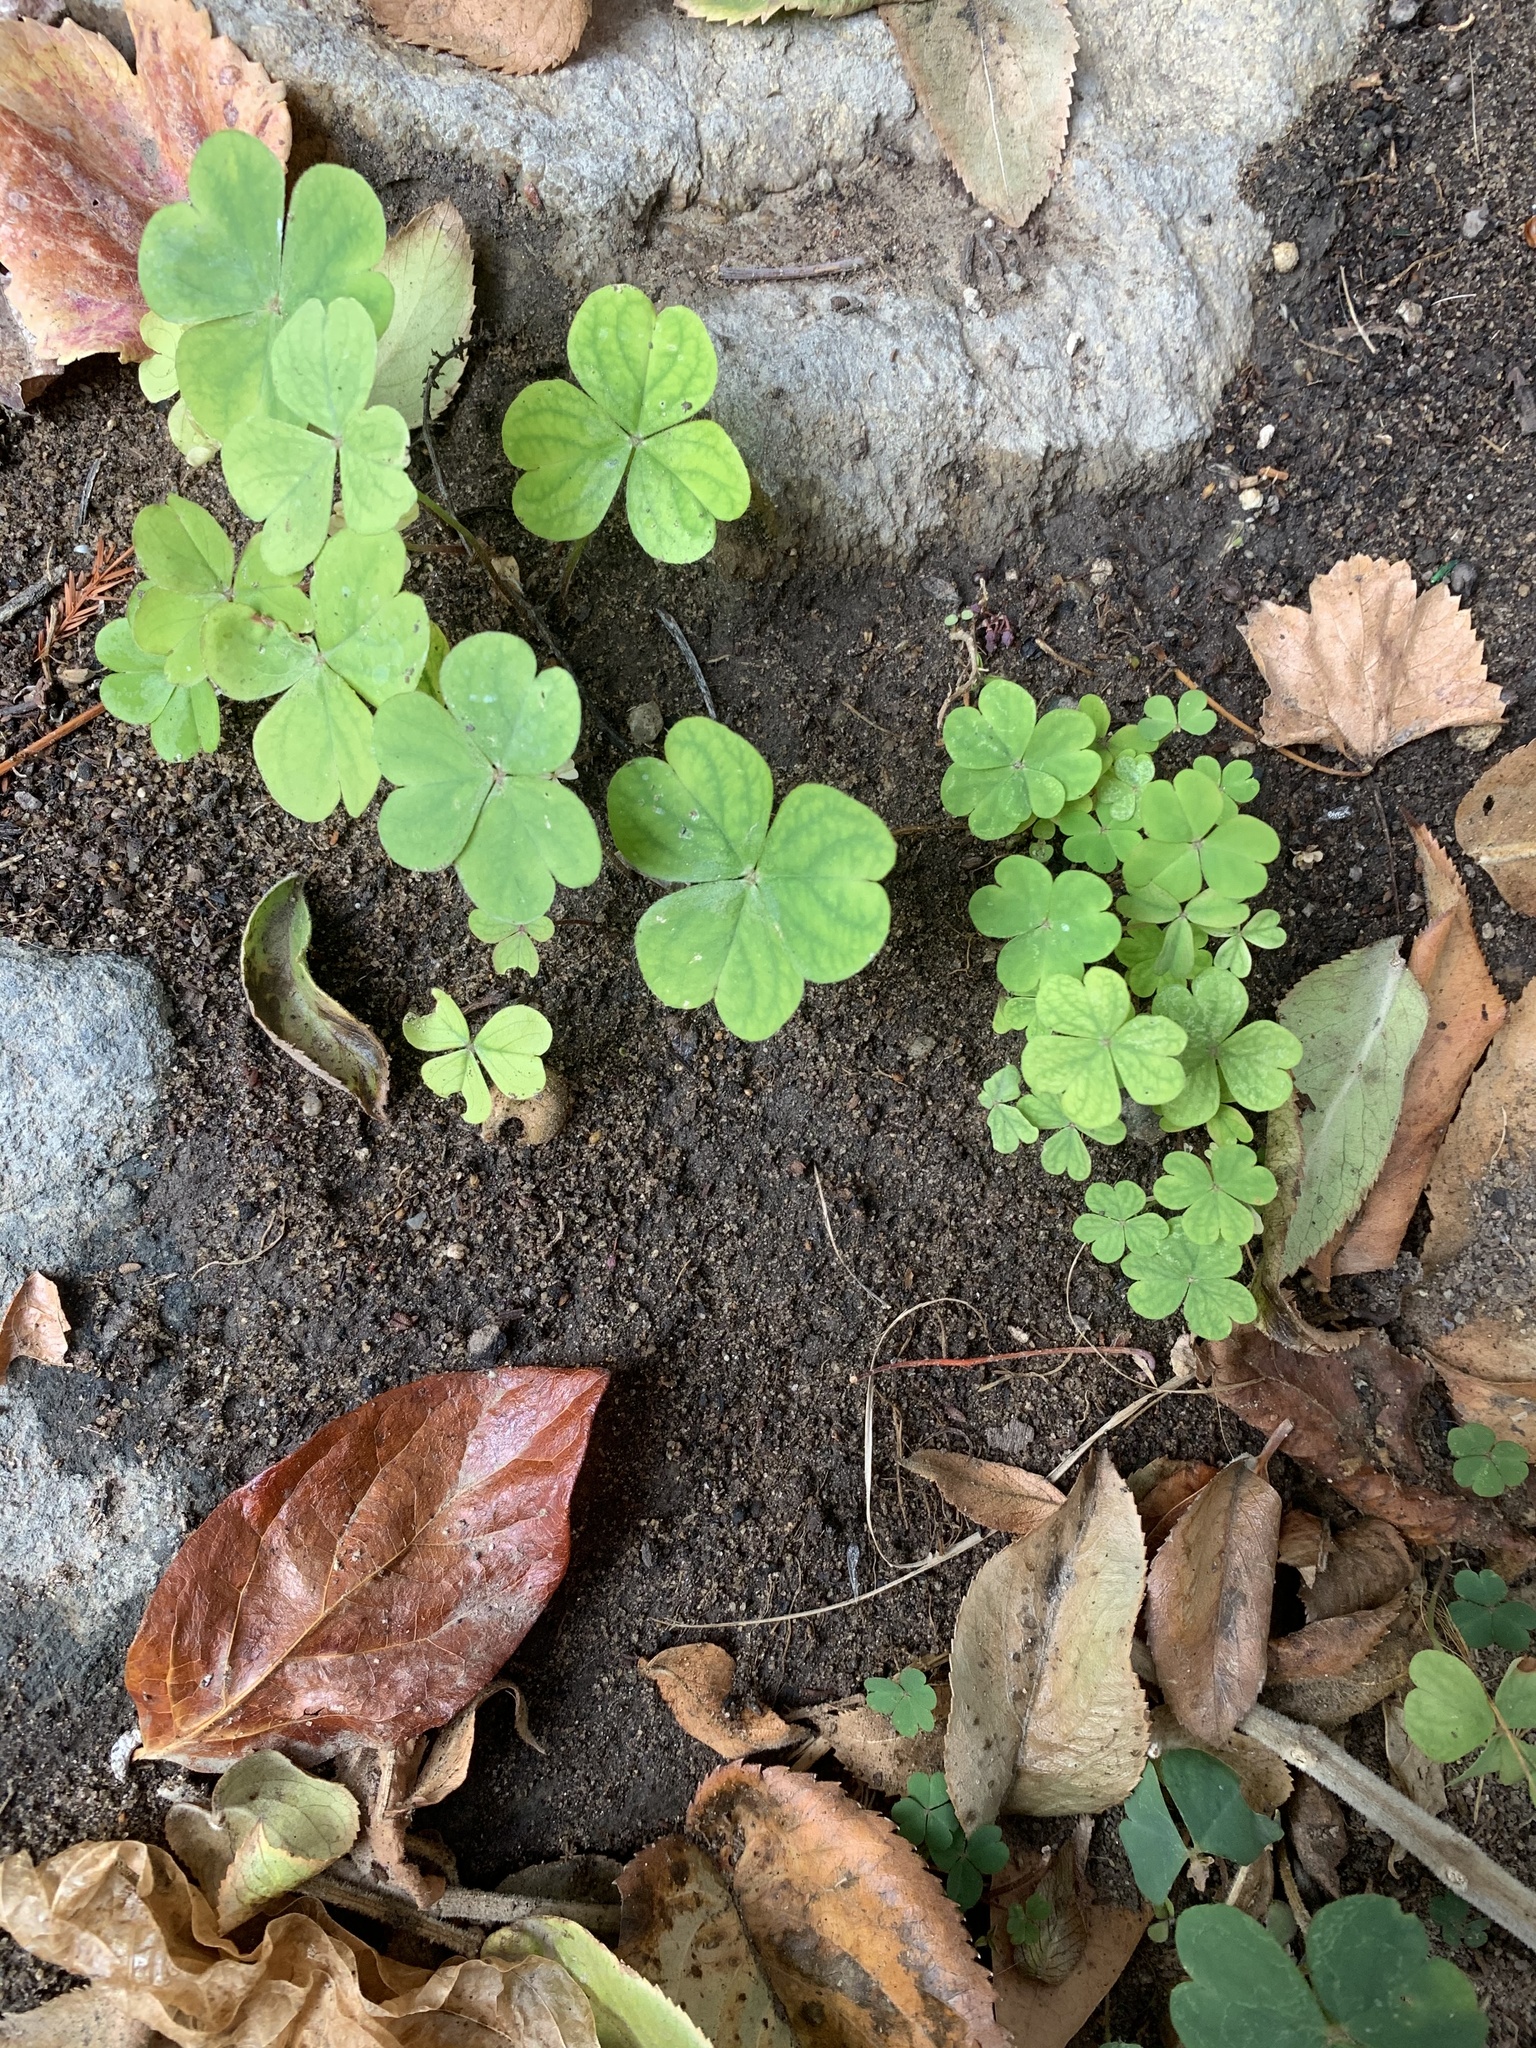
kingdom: Plantae
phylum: Tracheophyta
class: Magnoliopsida
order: Oxalidales
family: Oxalidaceae
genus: Oxalis
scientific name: Oxalis debilis
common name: Large-flowered pink-sorrel
